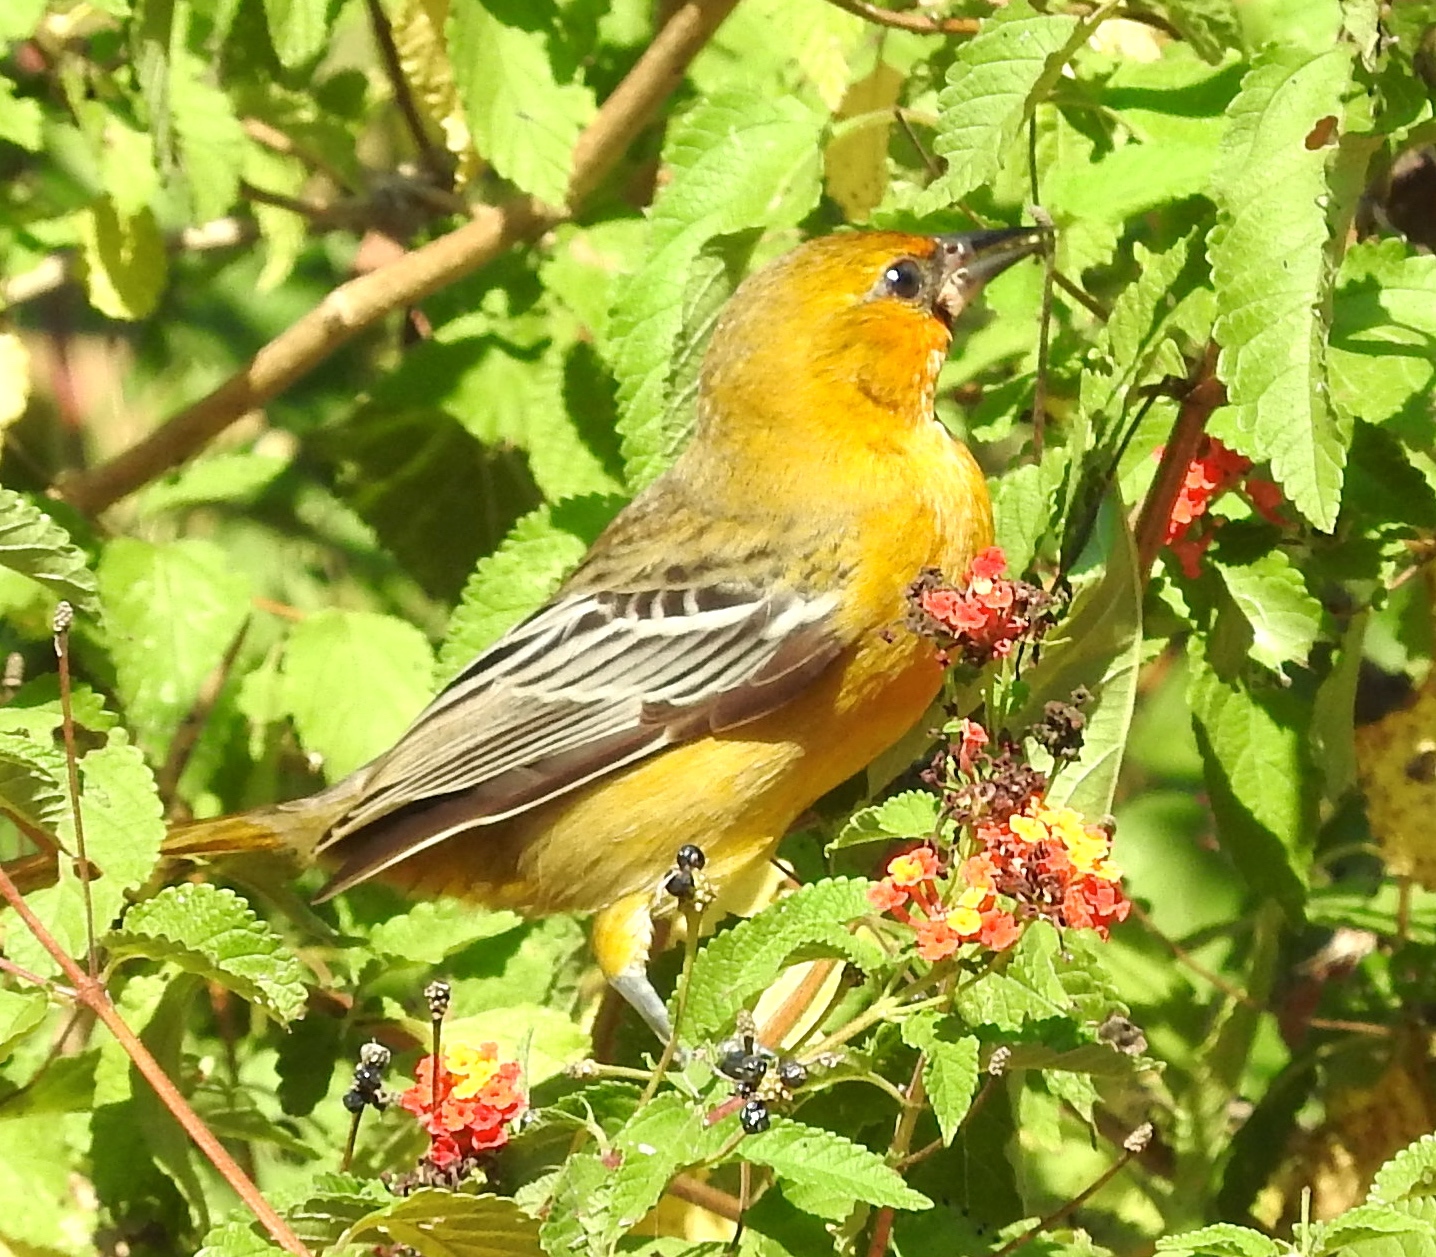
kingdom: Animalia
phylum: Chordata
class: Aves
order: Passeriformes
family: Icteridae
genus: Icterus
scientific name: Icterus pustulatus
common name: Streak-backed oriole
